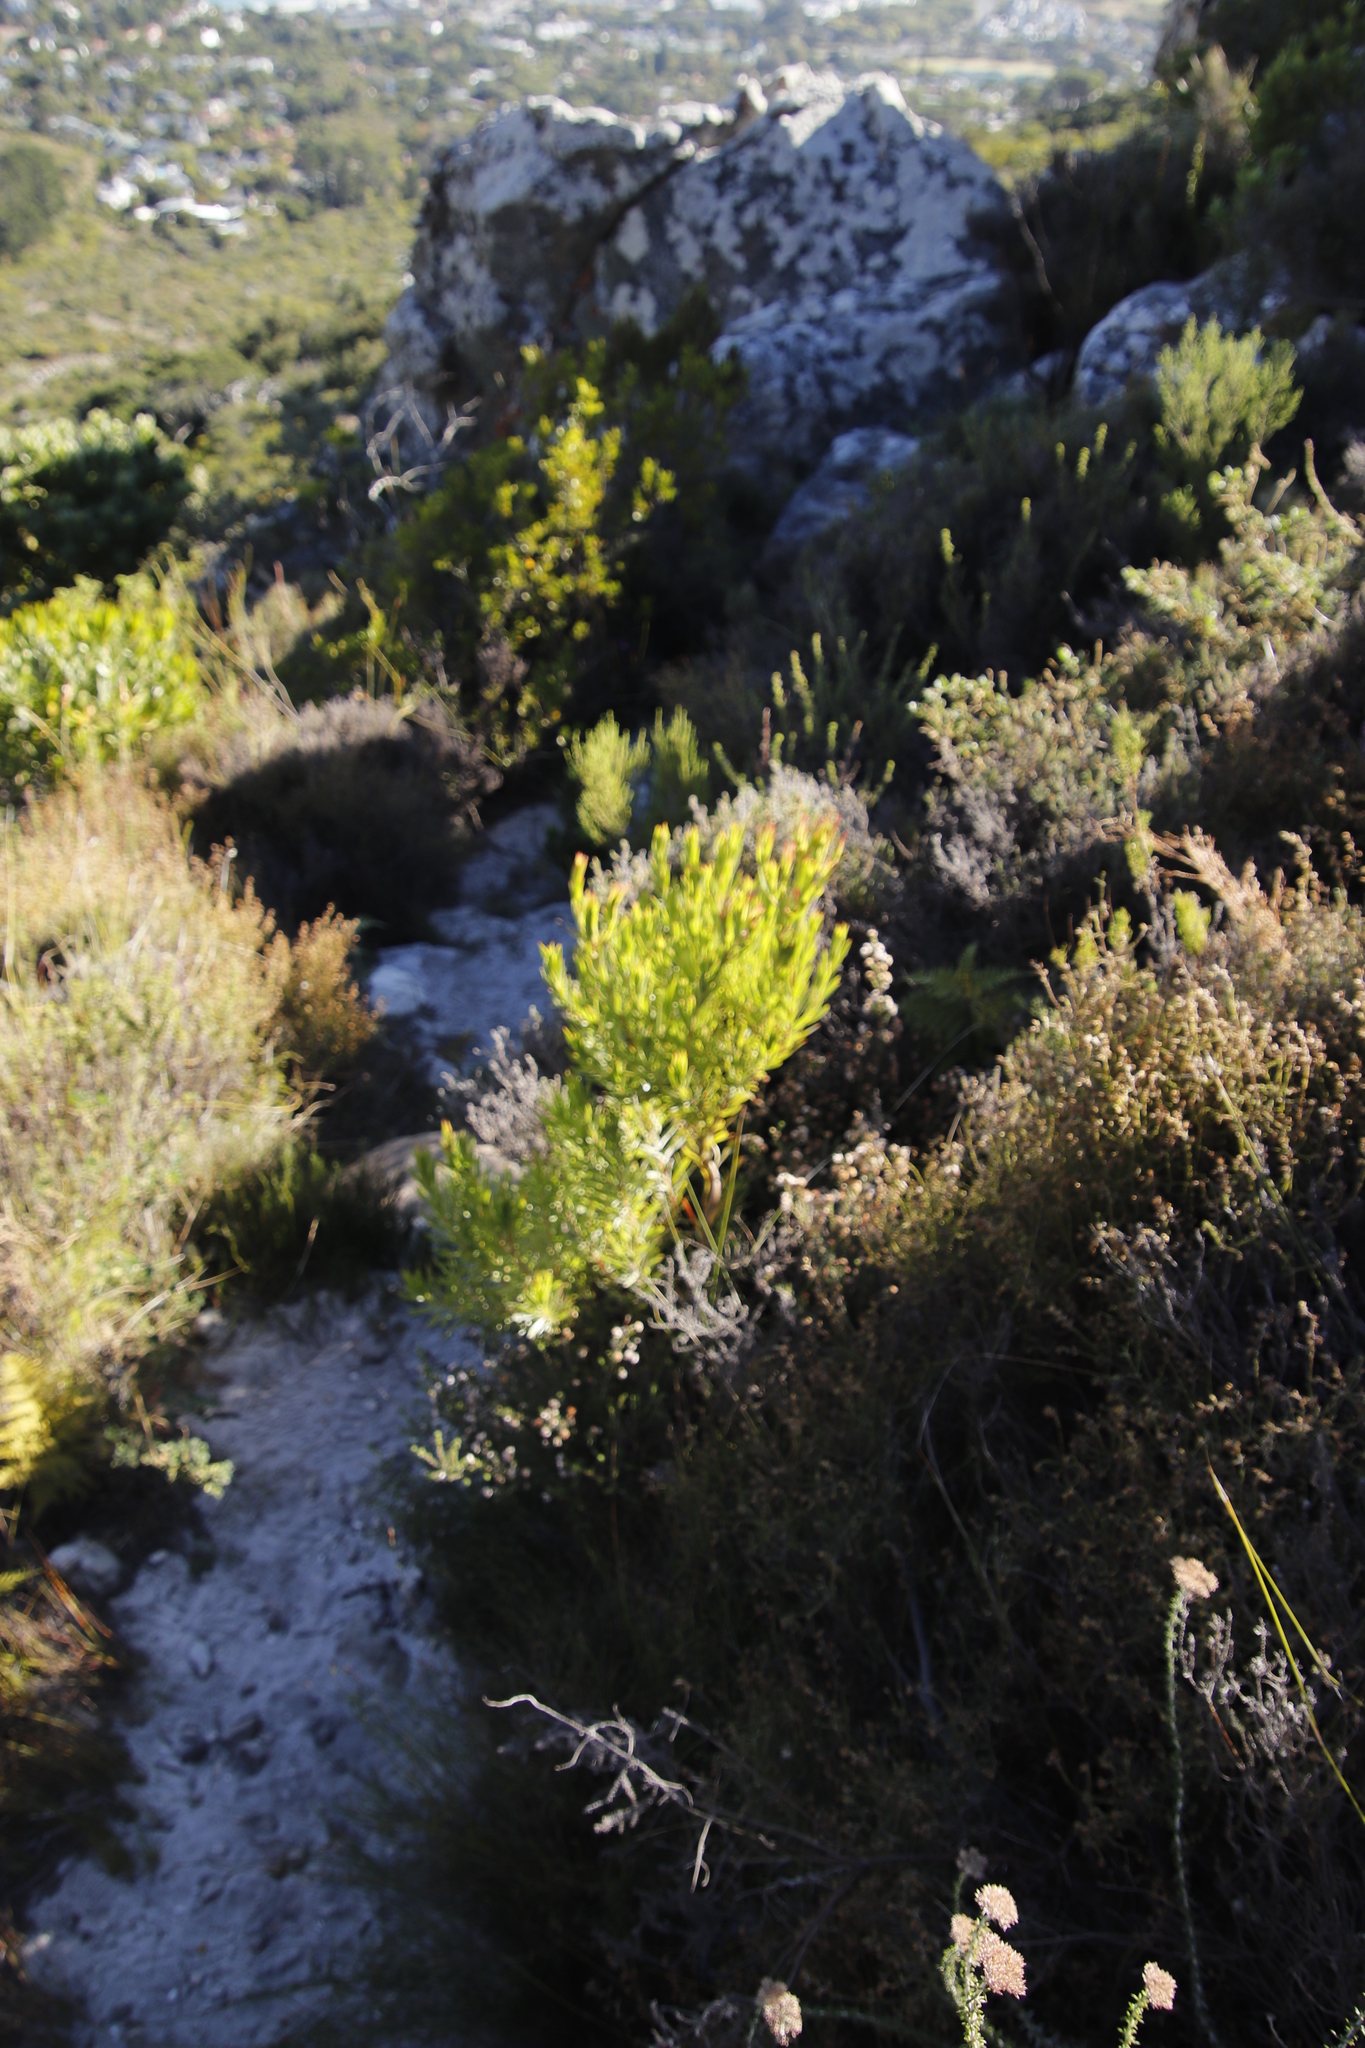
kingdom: Plantae
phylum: Tracheophyta
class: Magnoliopsida
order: Proteales
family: Proteaceae
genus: Leucadendron
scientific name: Leucadendron xanthoconus
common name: Sickle-leaf conebush
